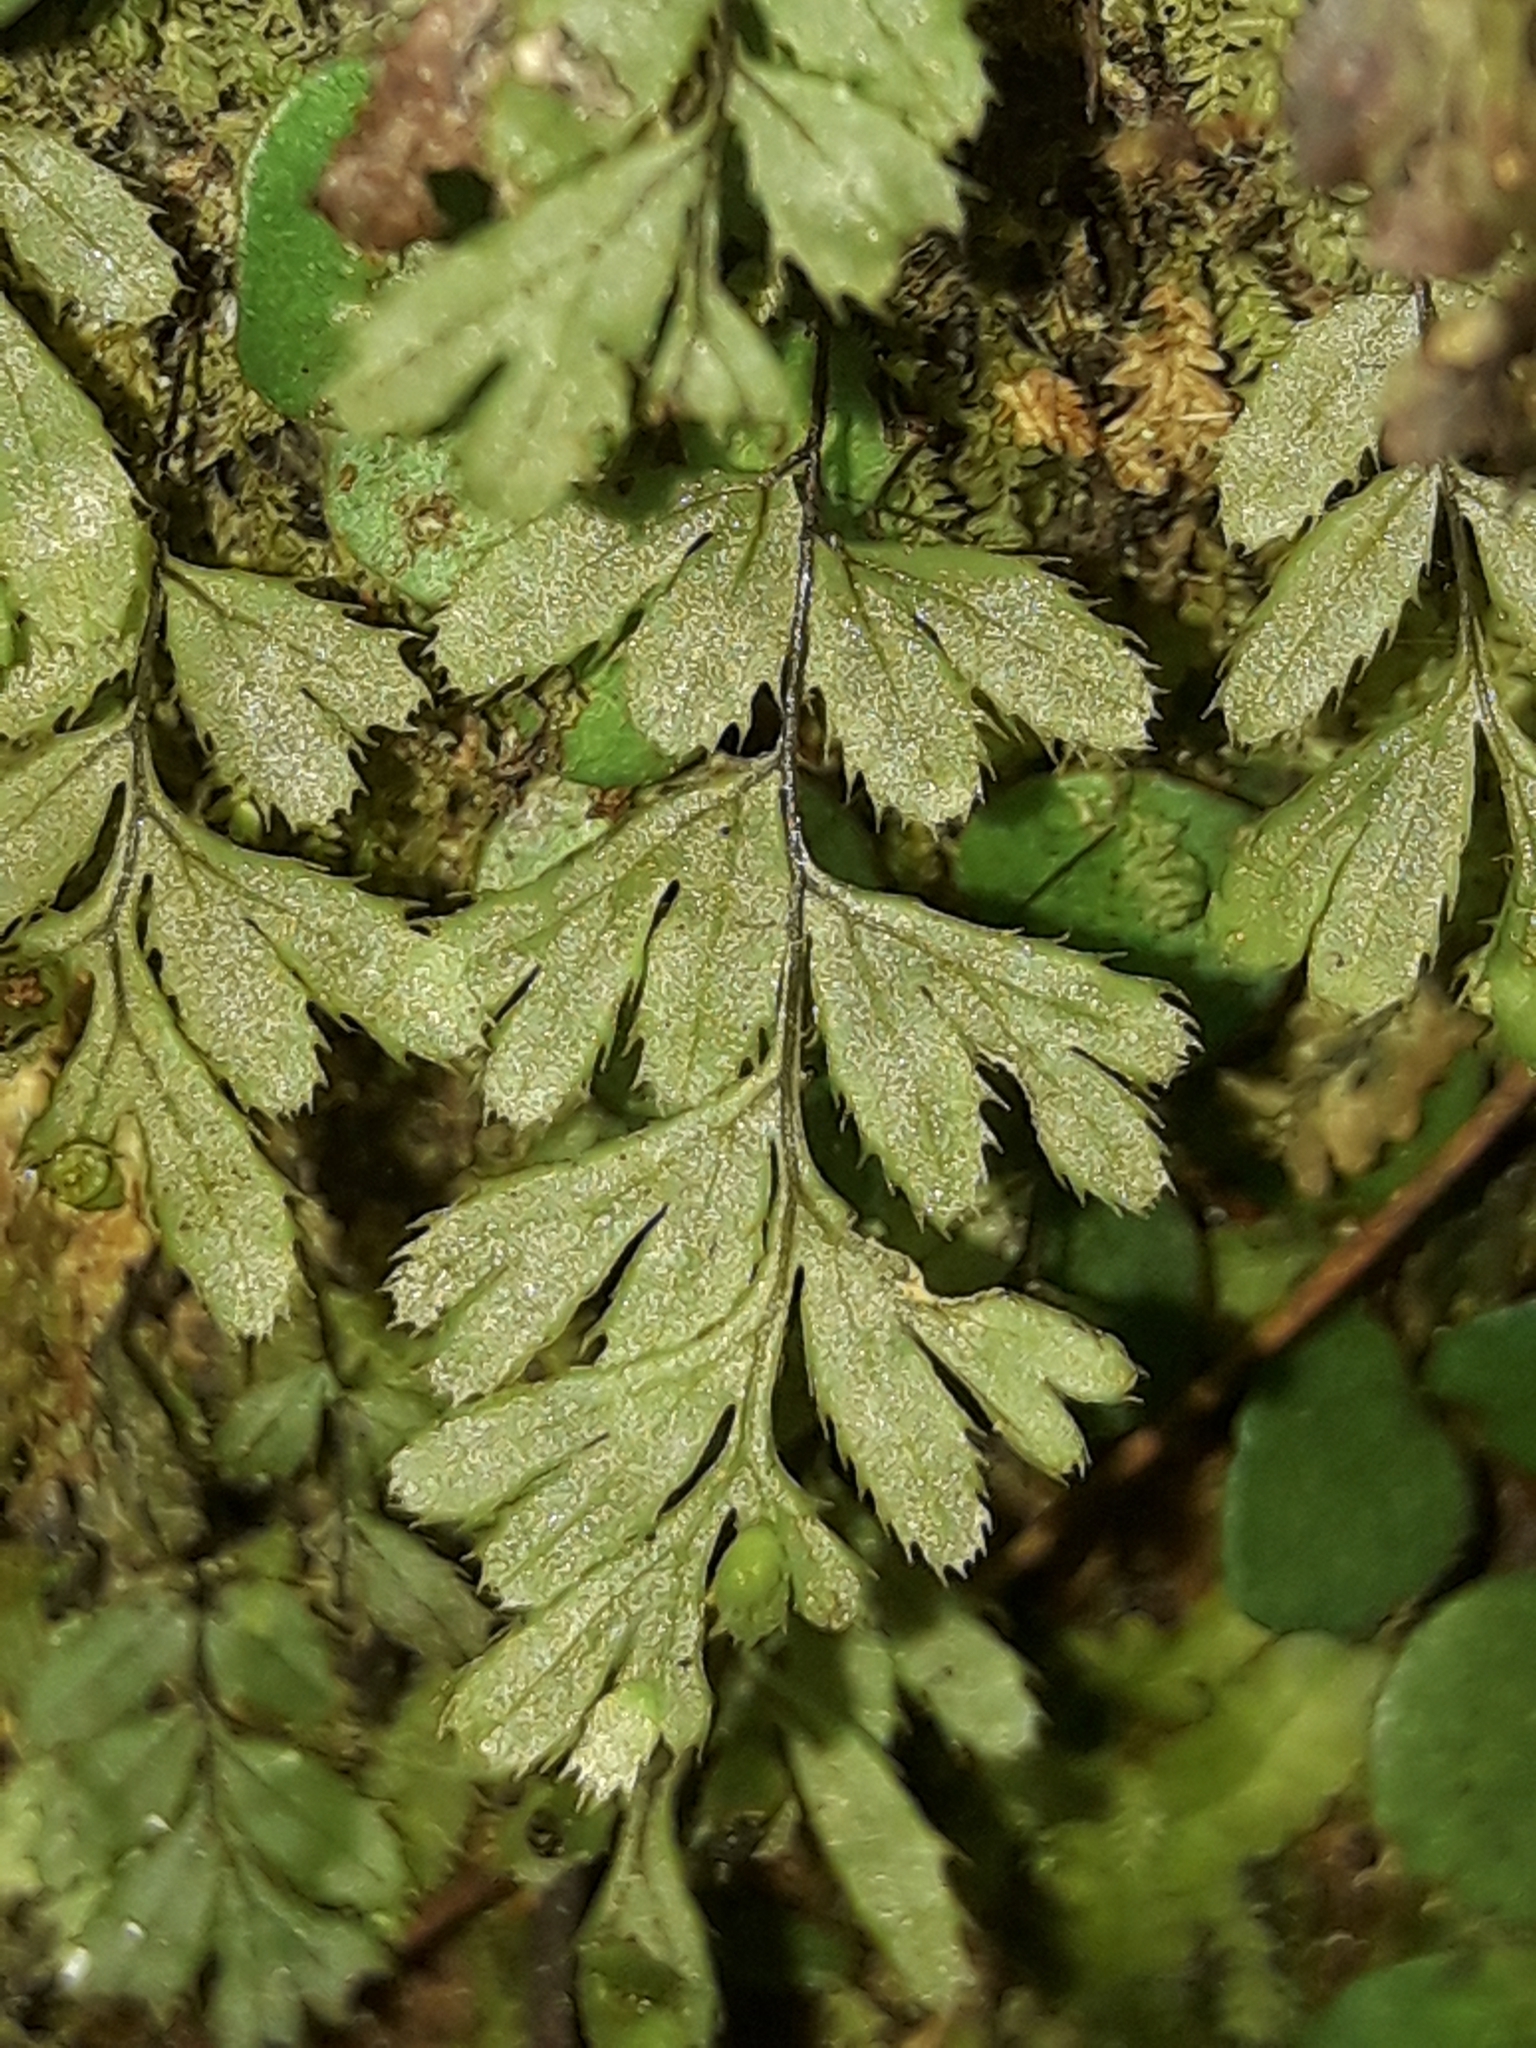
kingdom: Plantae
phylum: Tracheophyta
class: Polypodiopsida
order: Hymenophyllales
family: Hymenophyllaceae
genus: Hymenophyllum
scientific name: Hymenophyllum revolutum
